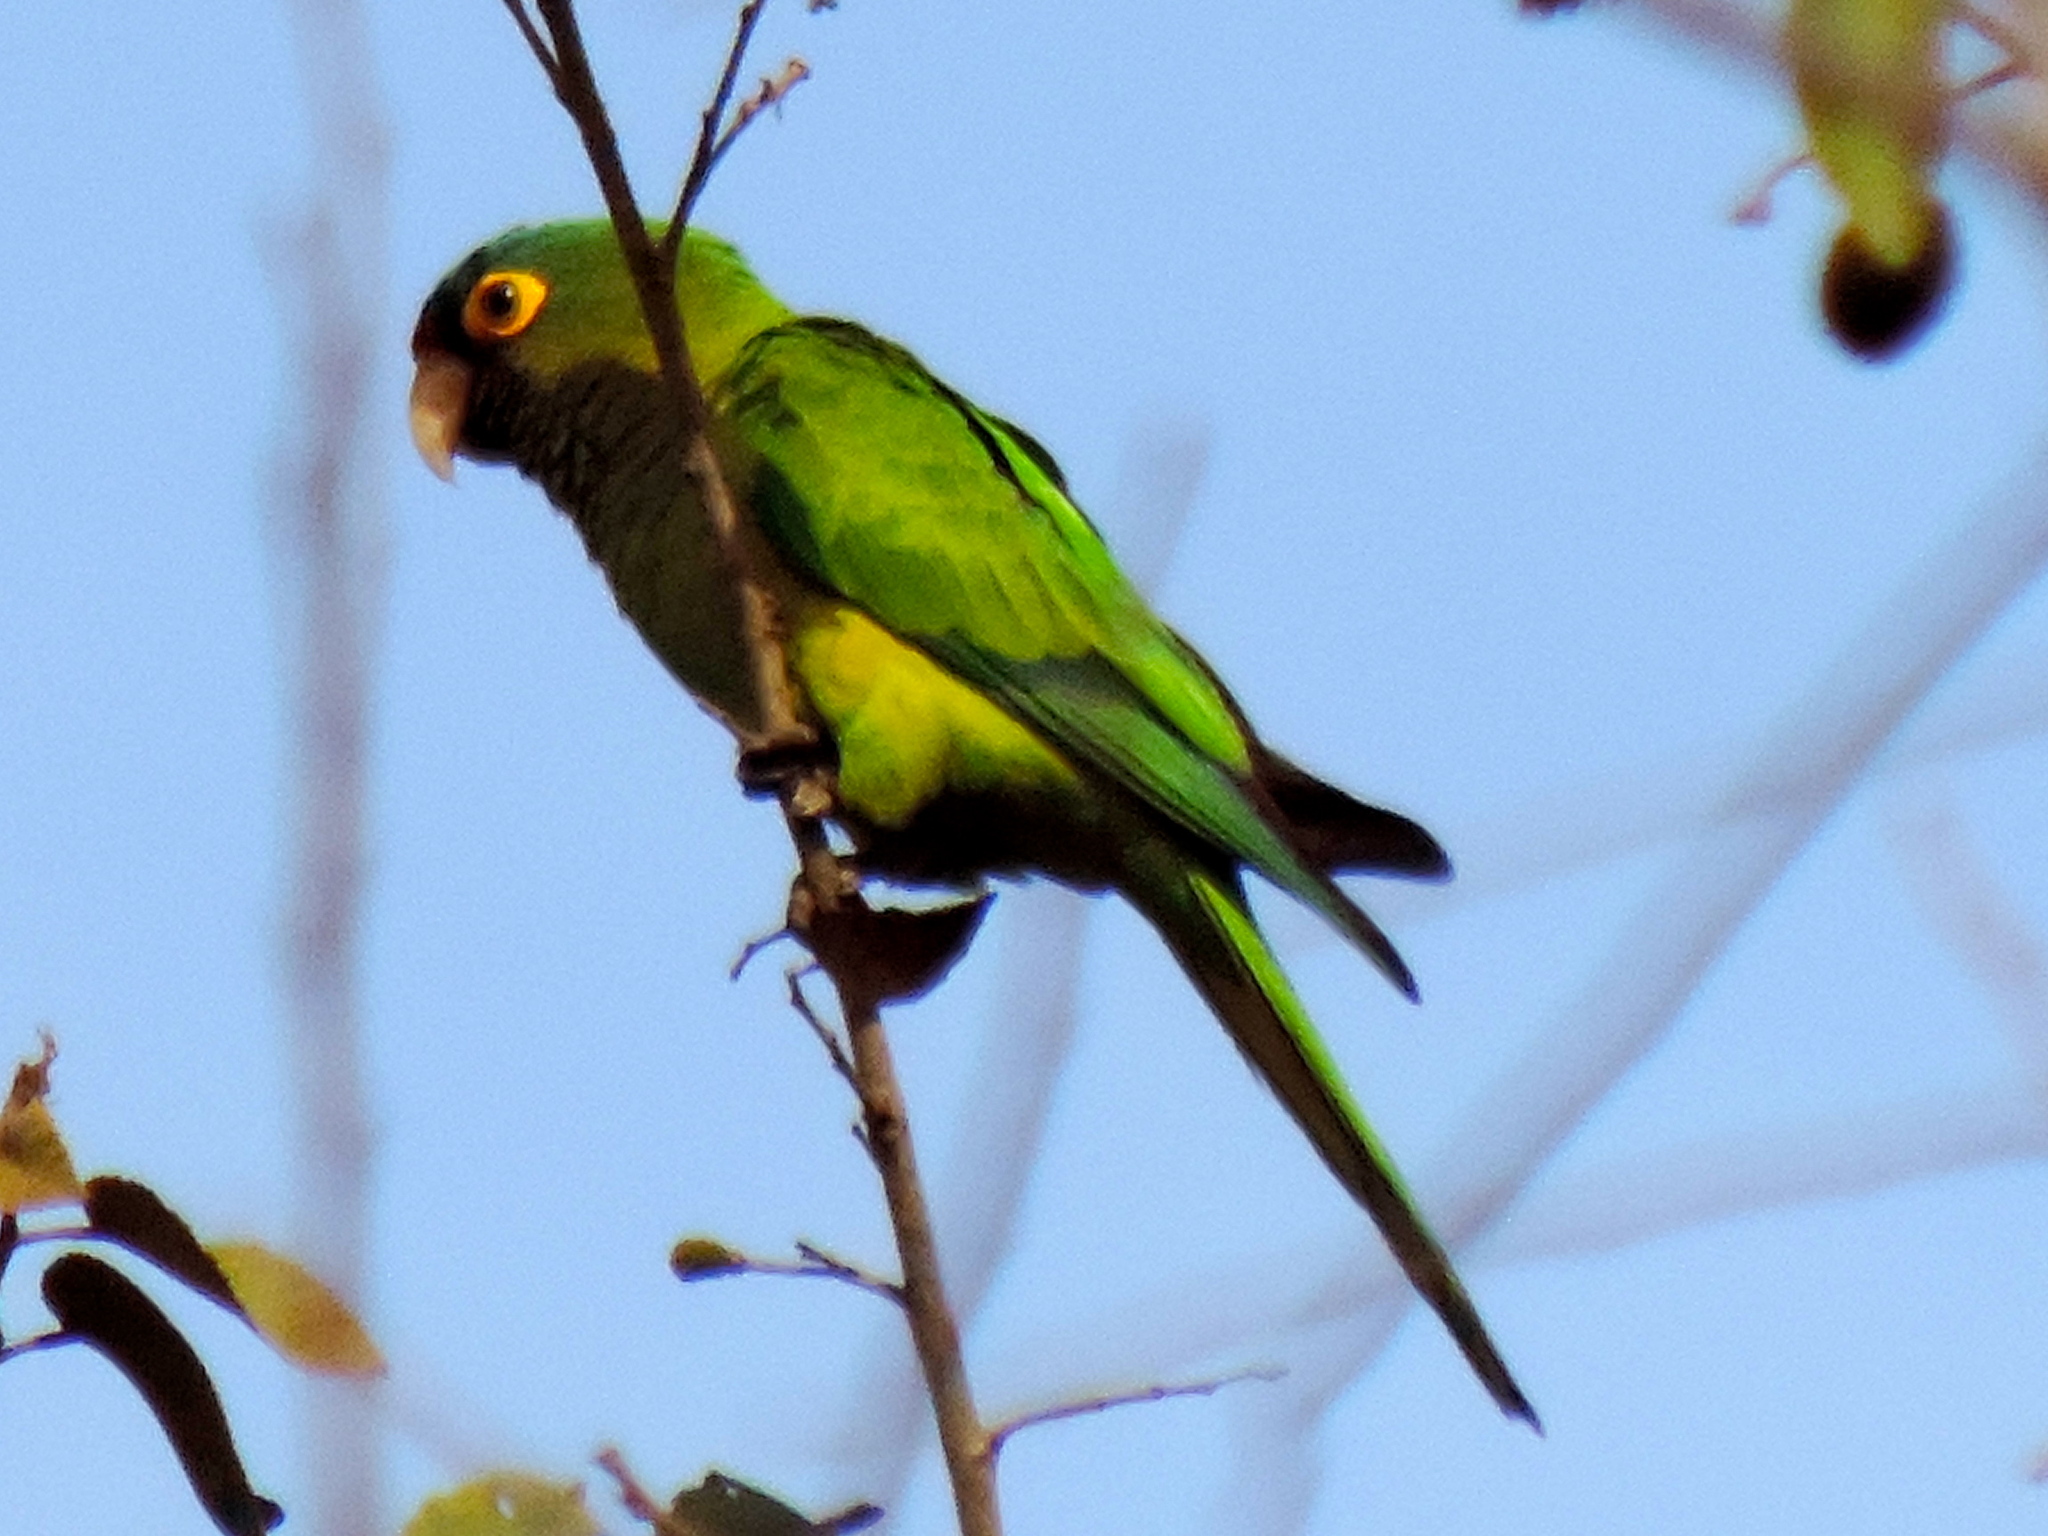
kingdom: Animalia
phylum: Chordata
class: Aves
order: Psittaciformes
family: Psittacidae
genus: Aratinga
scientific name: Aratinga canicularis
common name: Orange-fronted parakeet
